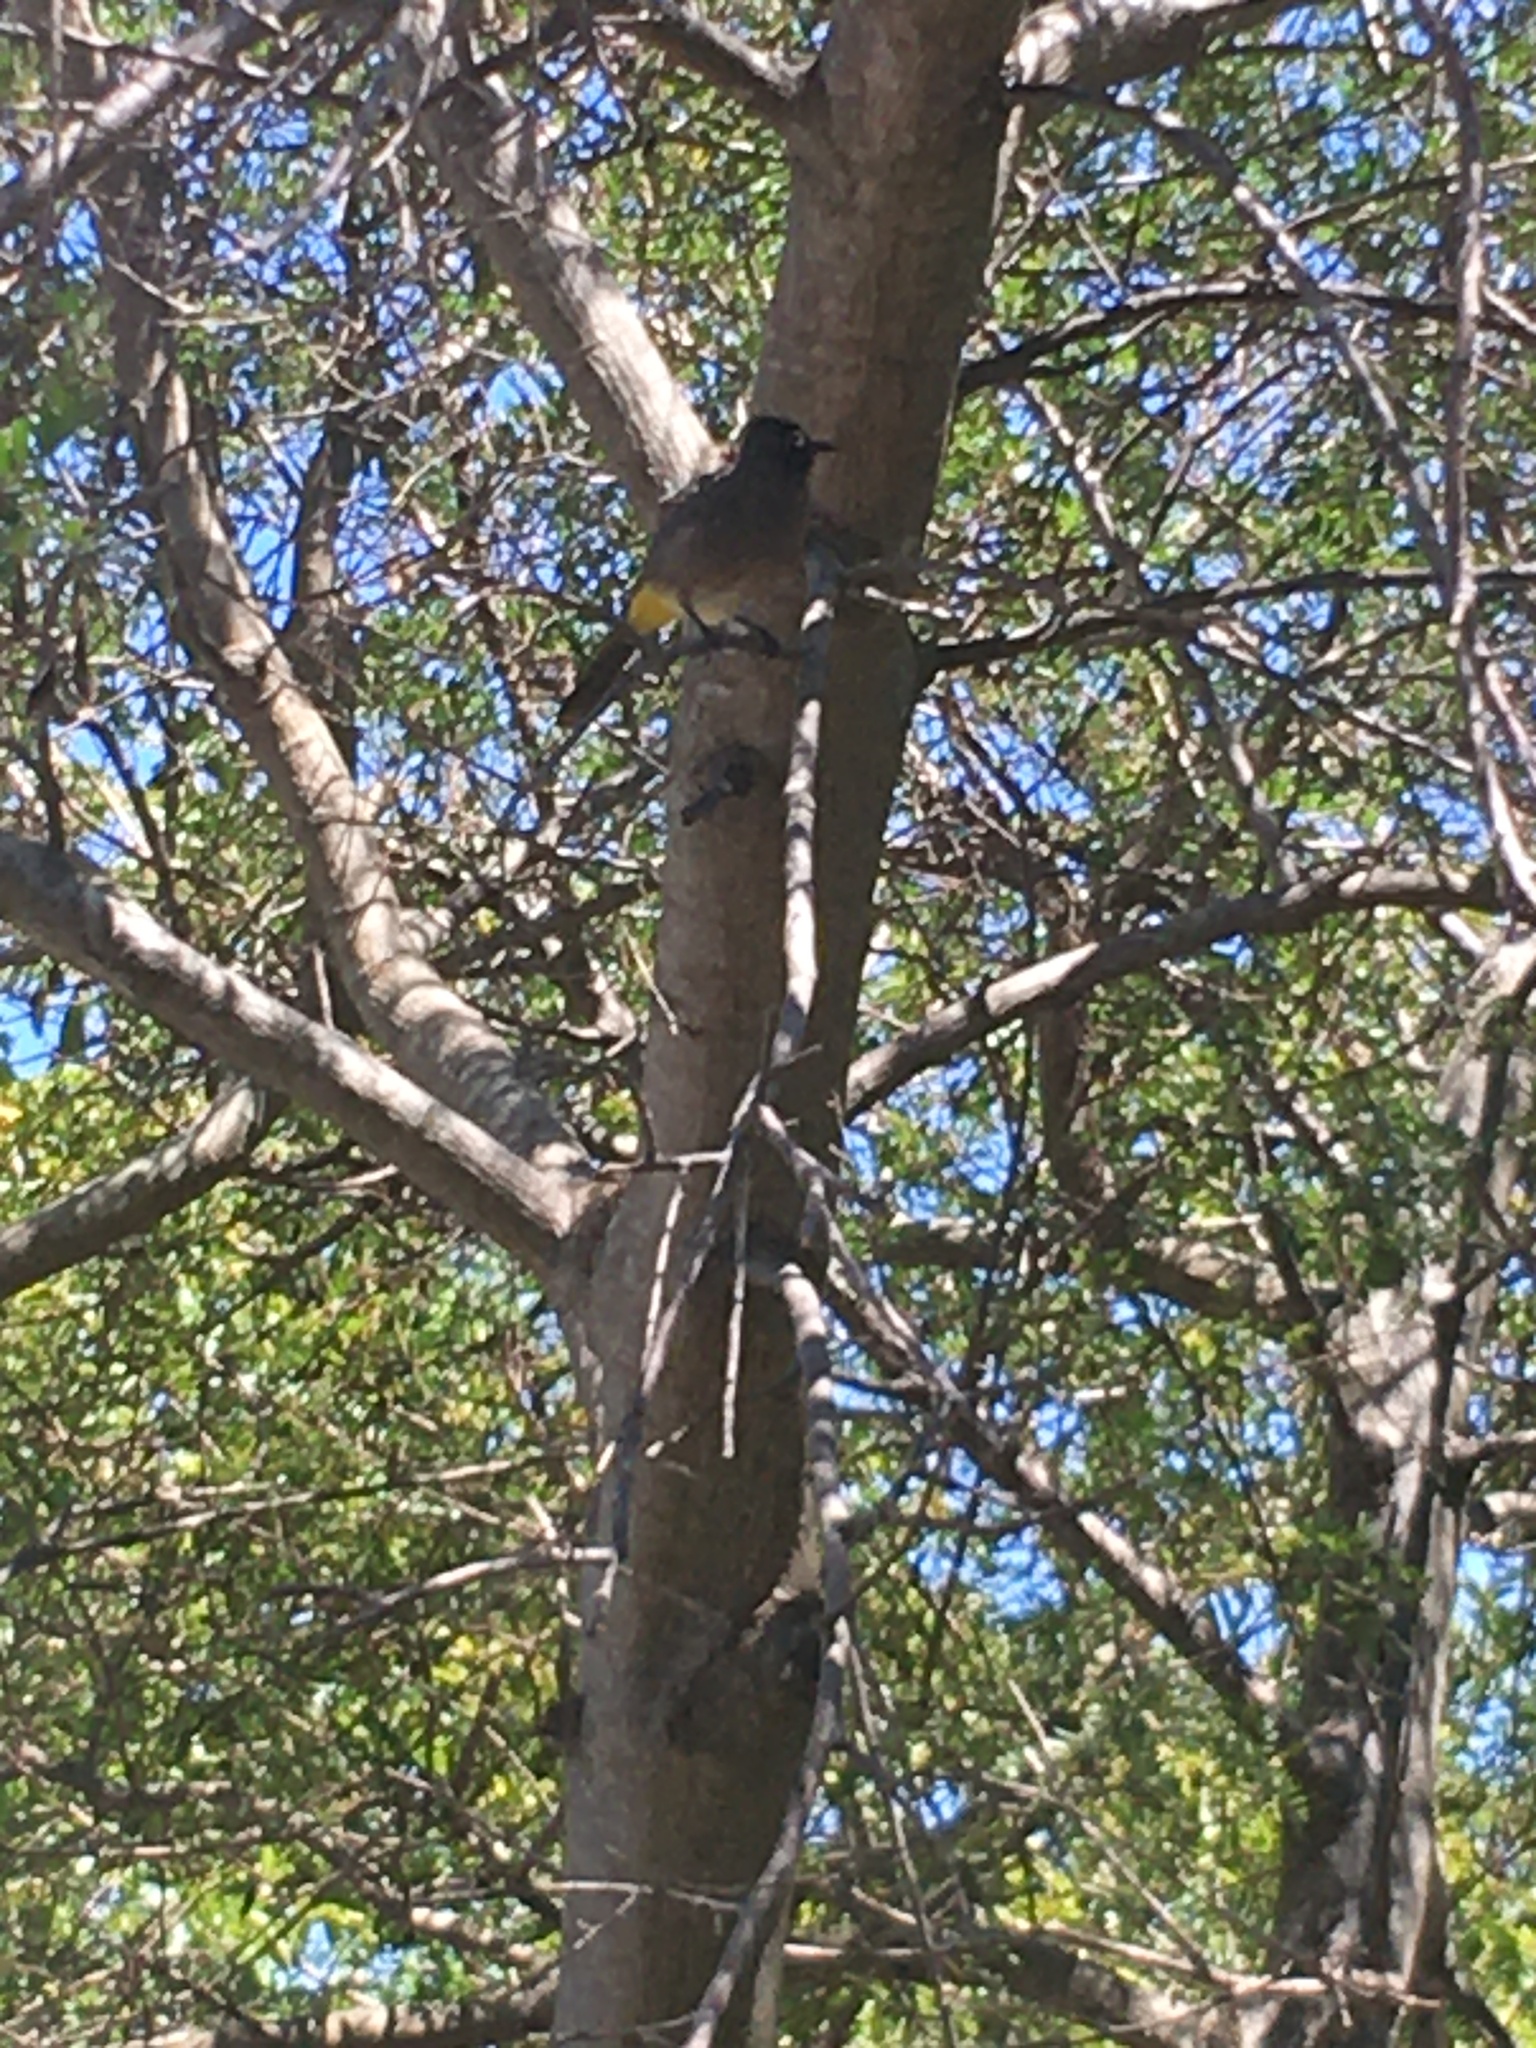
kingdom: Animalia
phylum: Chordata
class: Aves
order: Passeriformes
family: Pycnonotidae
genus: Pycnonotus
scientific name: Pycnonotus capensis
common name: Cape bulbul
